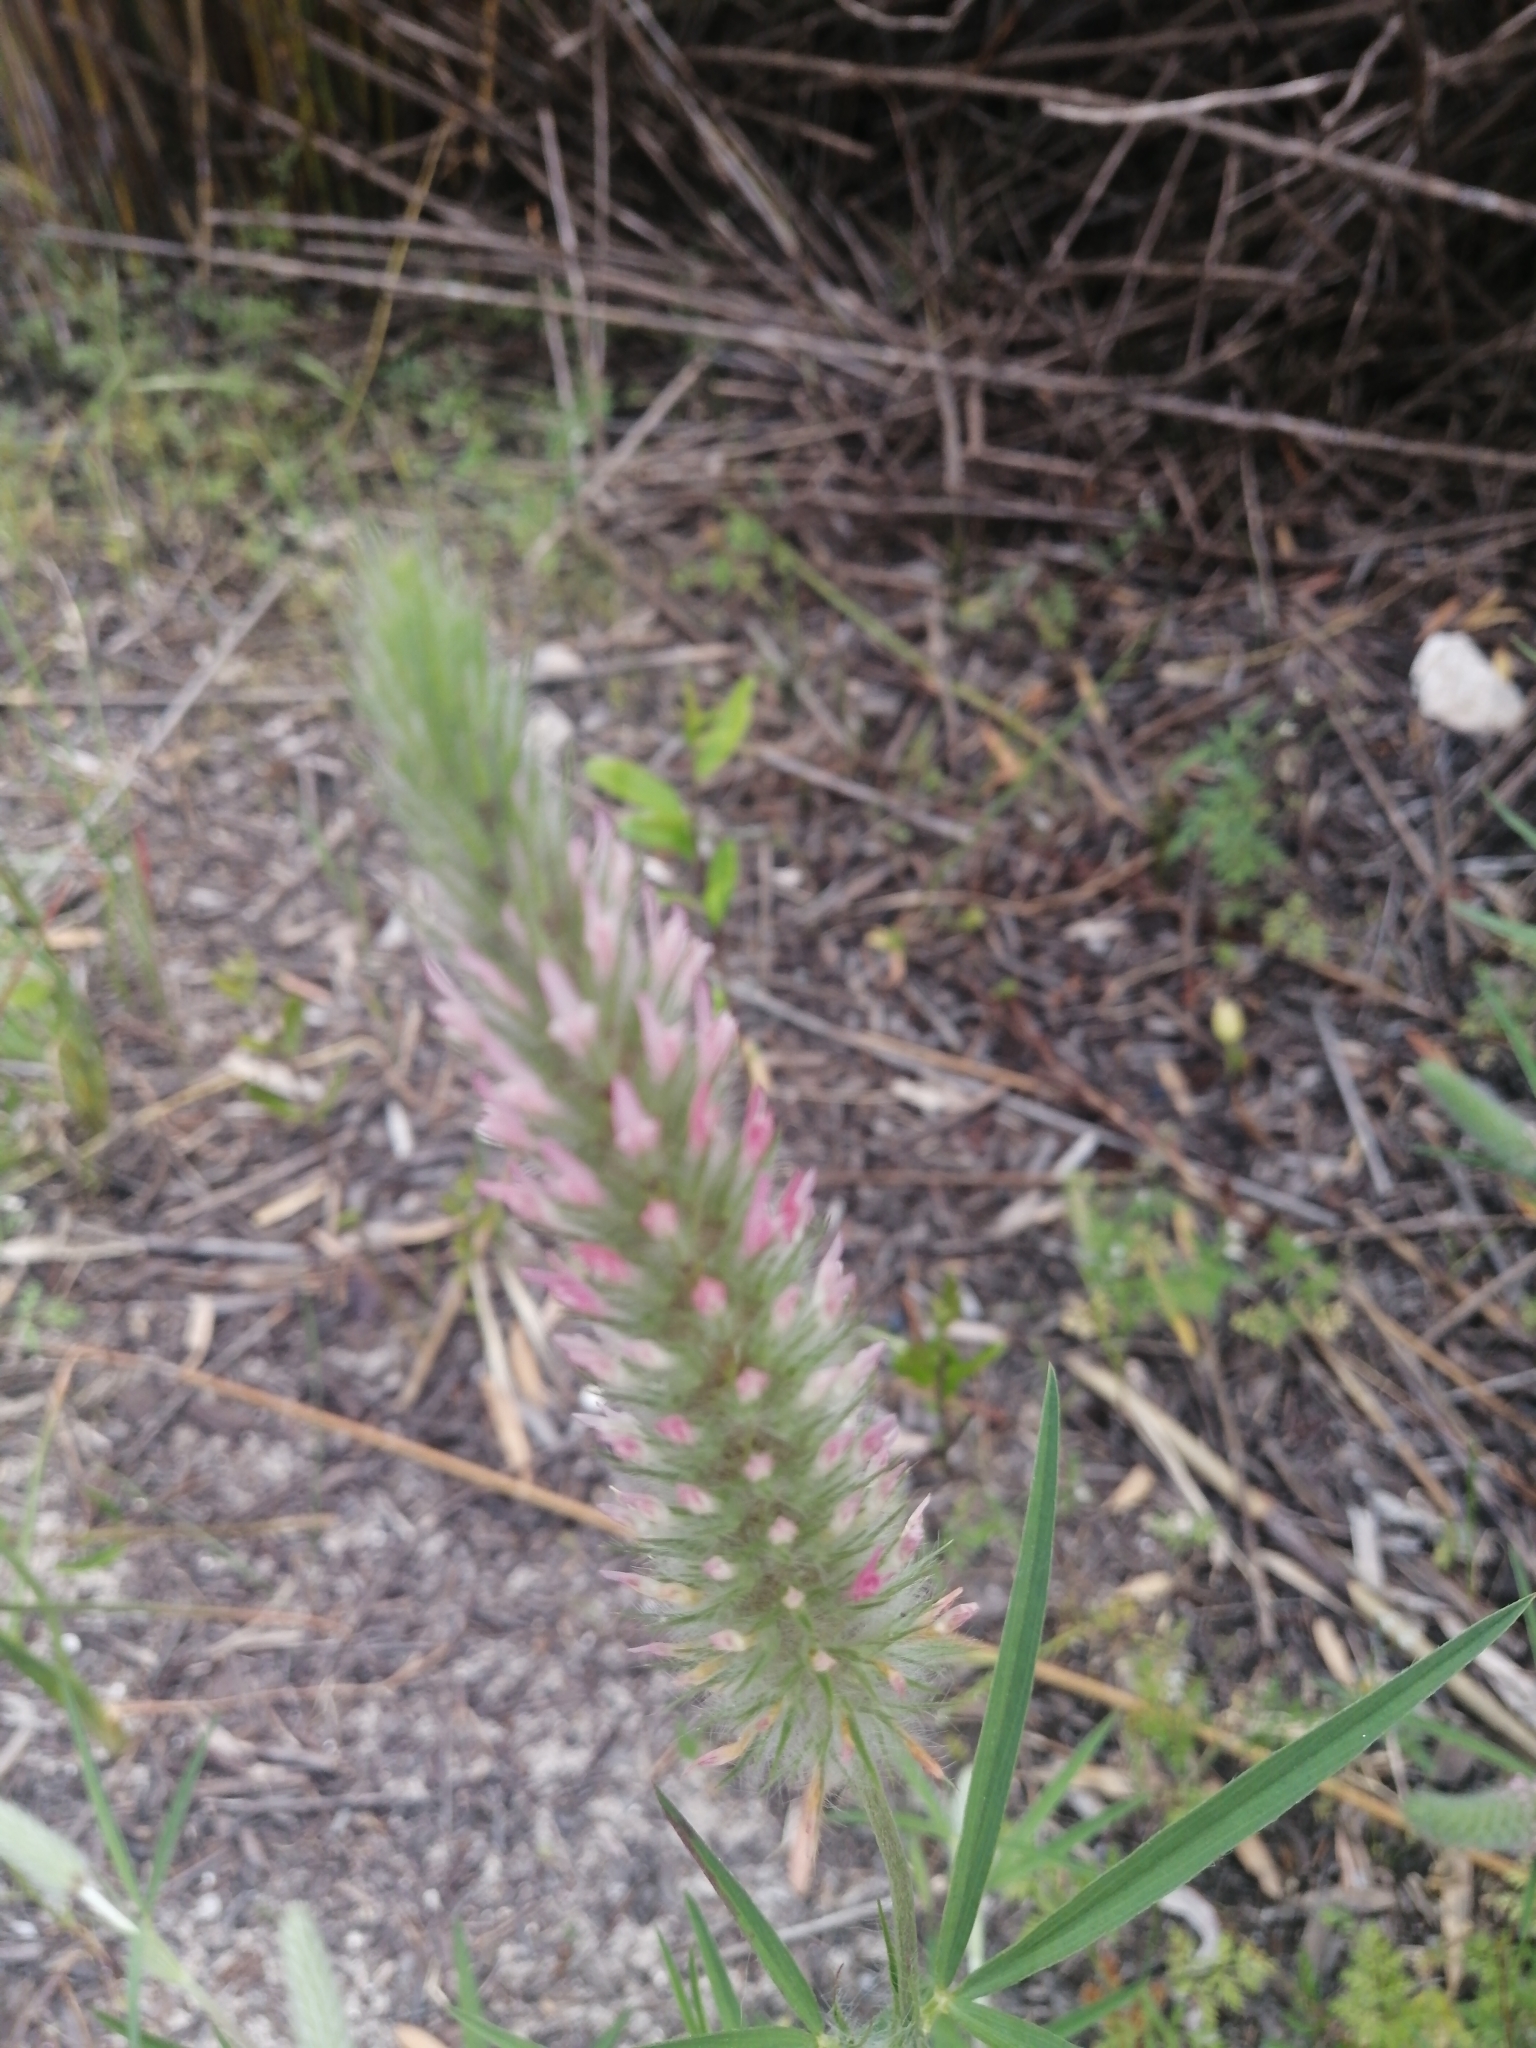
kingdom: Plantae
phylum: Tracheophyta
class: Magnoliopsida
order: Fabales
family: Fabaceae
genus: Trifolium
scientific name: Trifolium angustifolium
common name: Narrow clover
